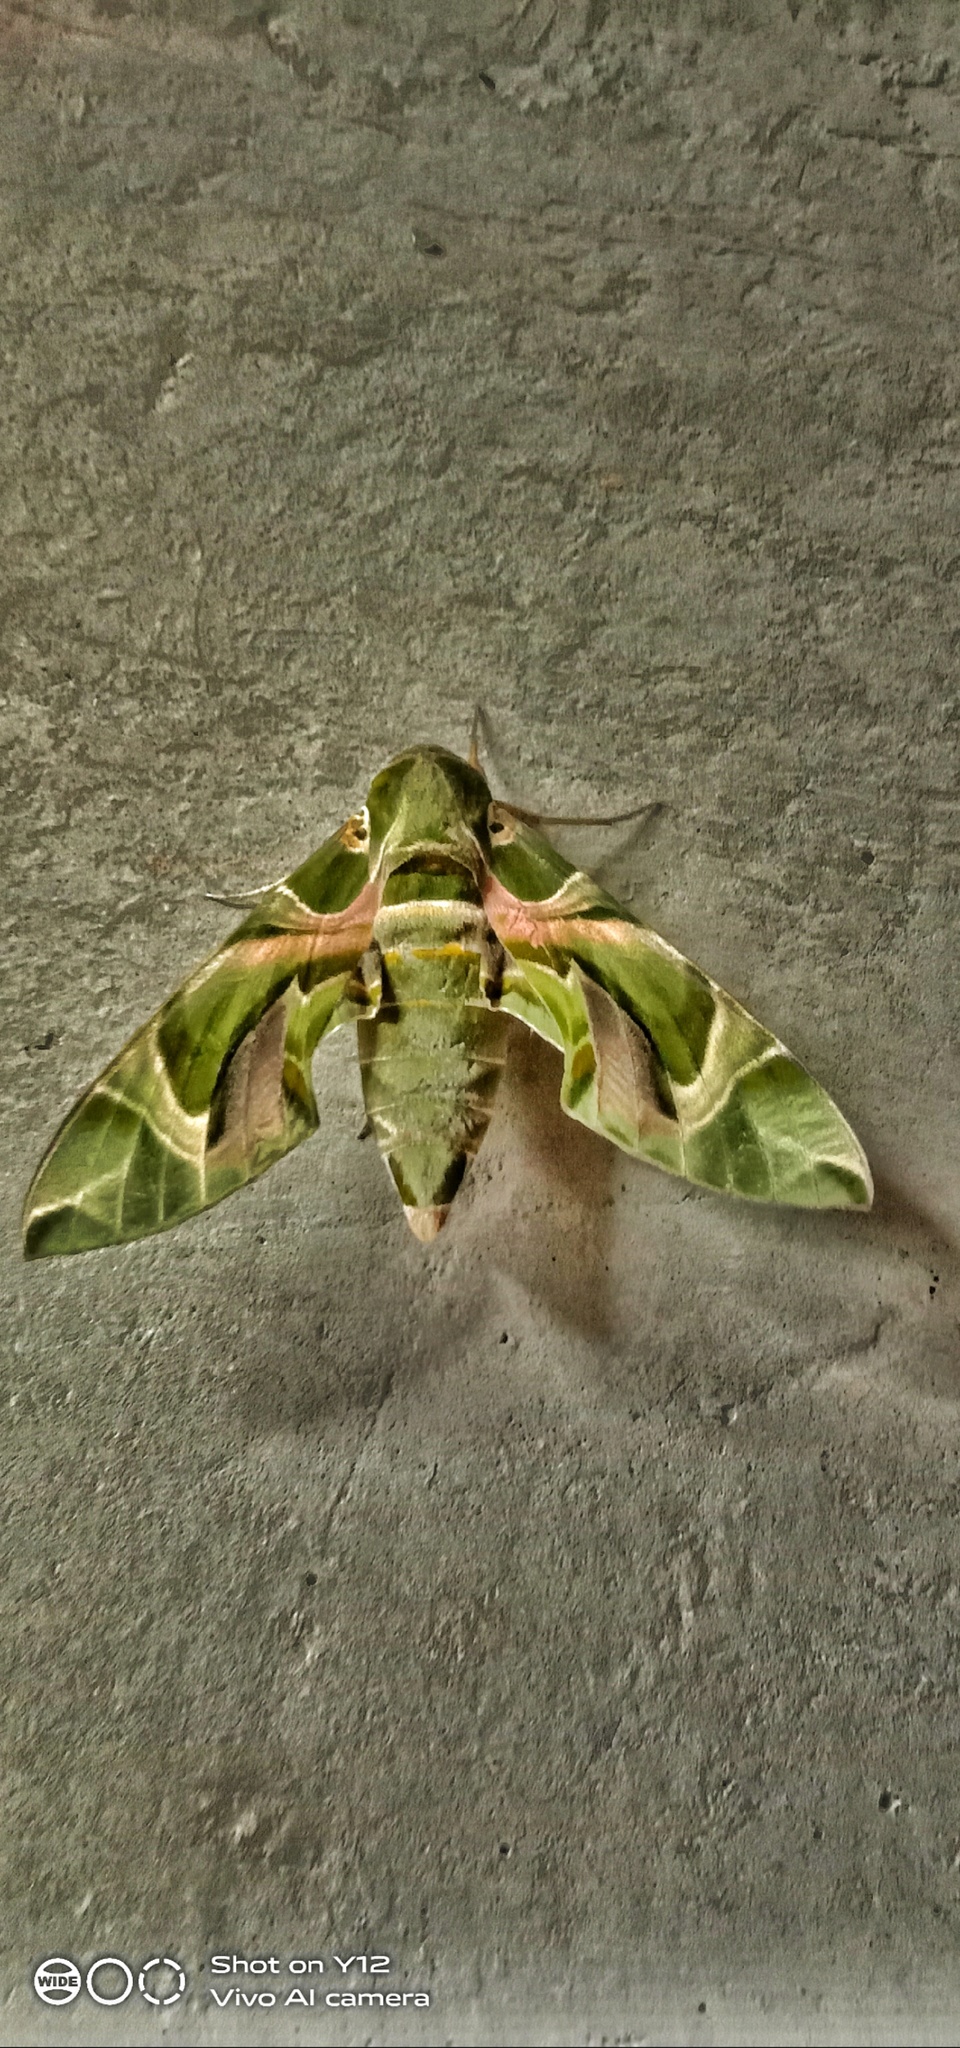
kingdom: Animalia
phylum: Arthropoda
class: Insecta
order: Lepidoptera
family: Sphingidae
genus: Daphnis
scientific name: Daphnis nerii
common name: Oleander hawk-moth
